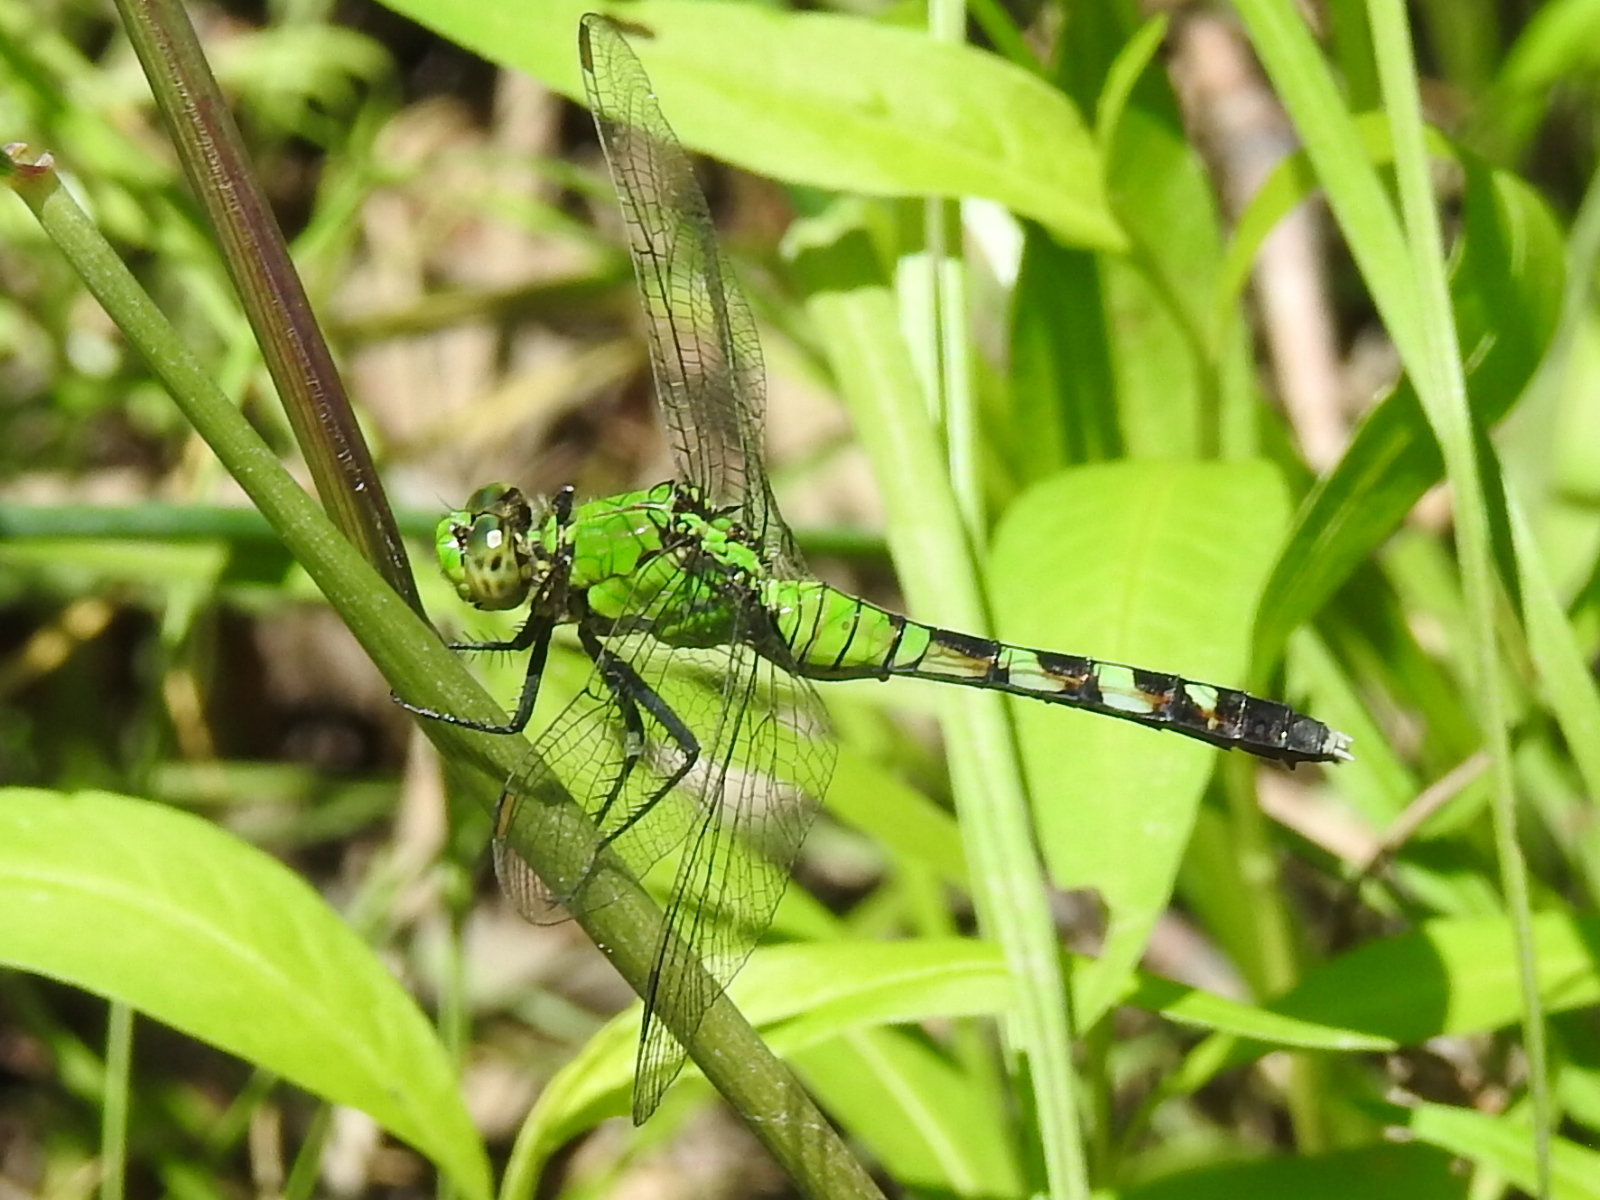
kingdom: Animalia
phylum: Arthropoda
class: Insecta
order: Odonata
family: Libellulidae
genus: Erythemis
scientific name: Erythemis simplicicollis
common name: Eastern pondhawk
